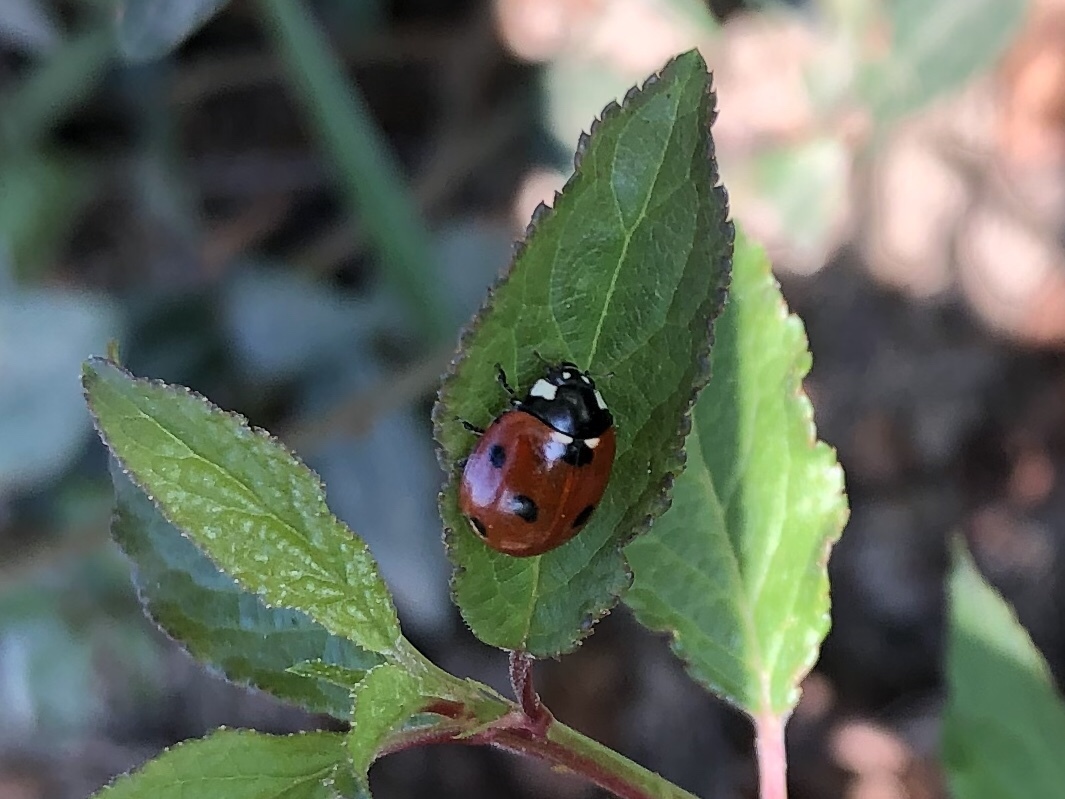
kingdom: Animalia
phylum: Arthropoda
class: Insecta
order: Coleoptera
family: Coccinellidae
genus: Coccinella
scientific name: Coccinella septempunctata
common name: Sevenspotted lady beetle
